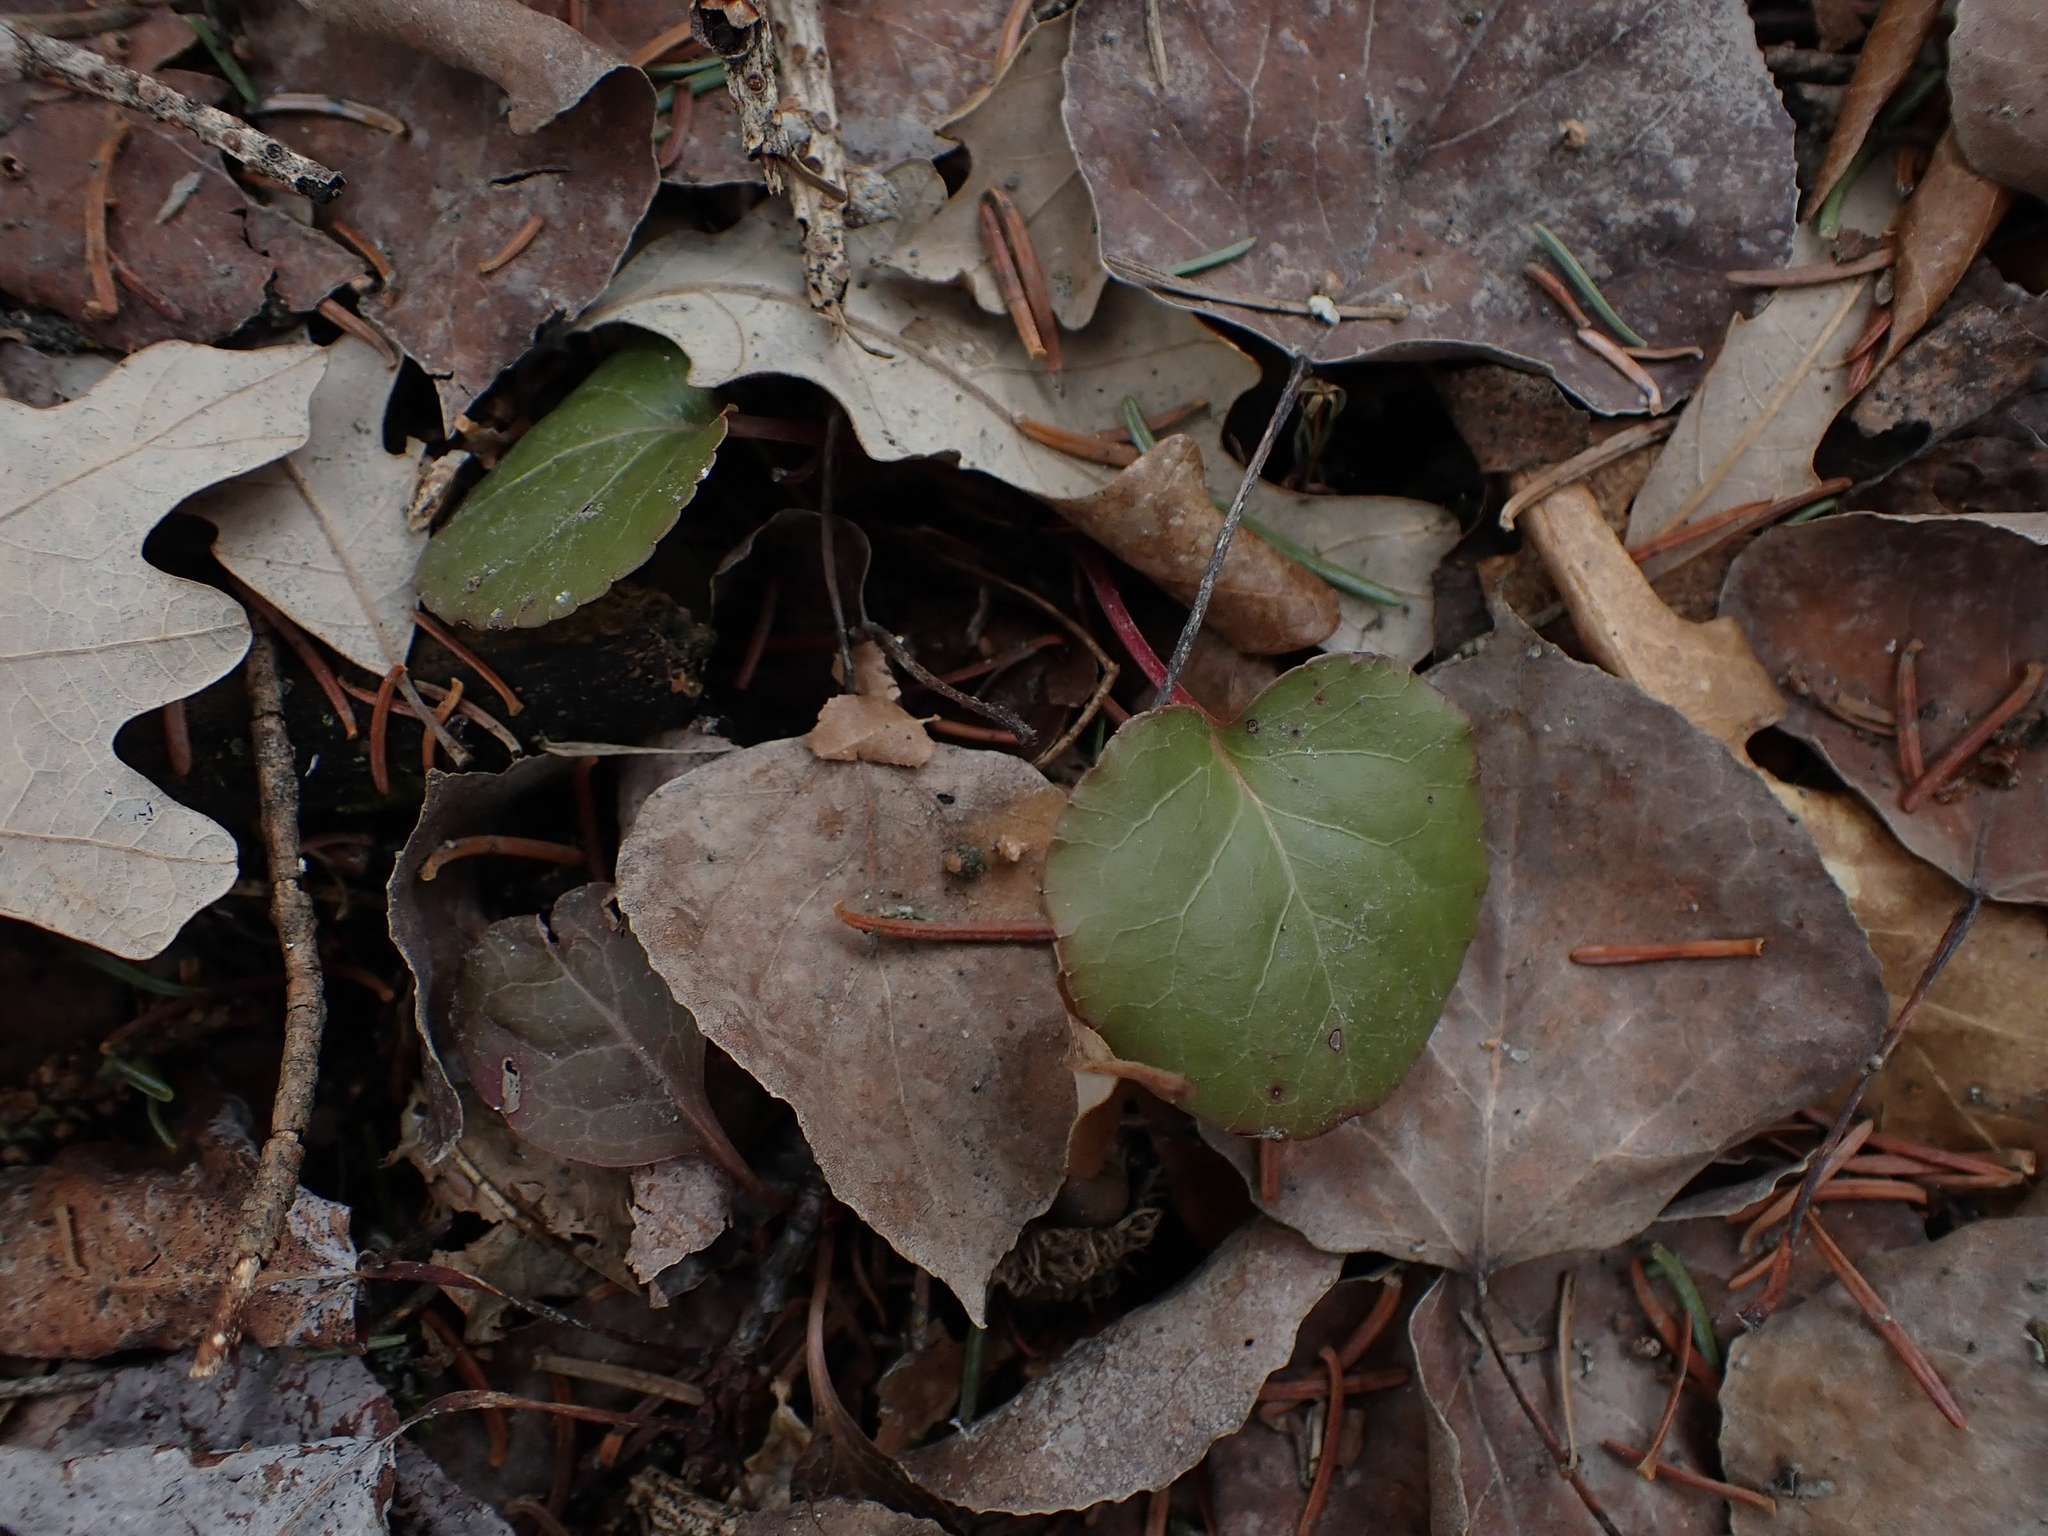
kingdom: Plantae
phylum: Tracheophyta
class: Magnoliopsida
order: Ericales
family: Ericaceae
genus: Pyrola
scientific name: Pyrola asarifolia
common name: Bog wintergreen
